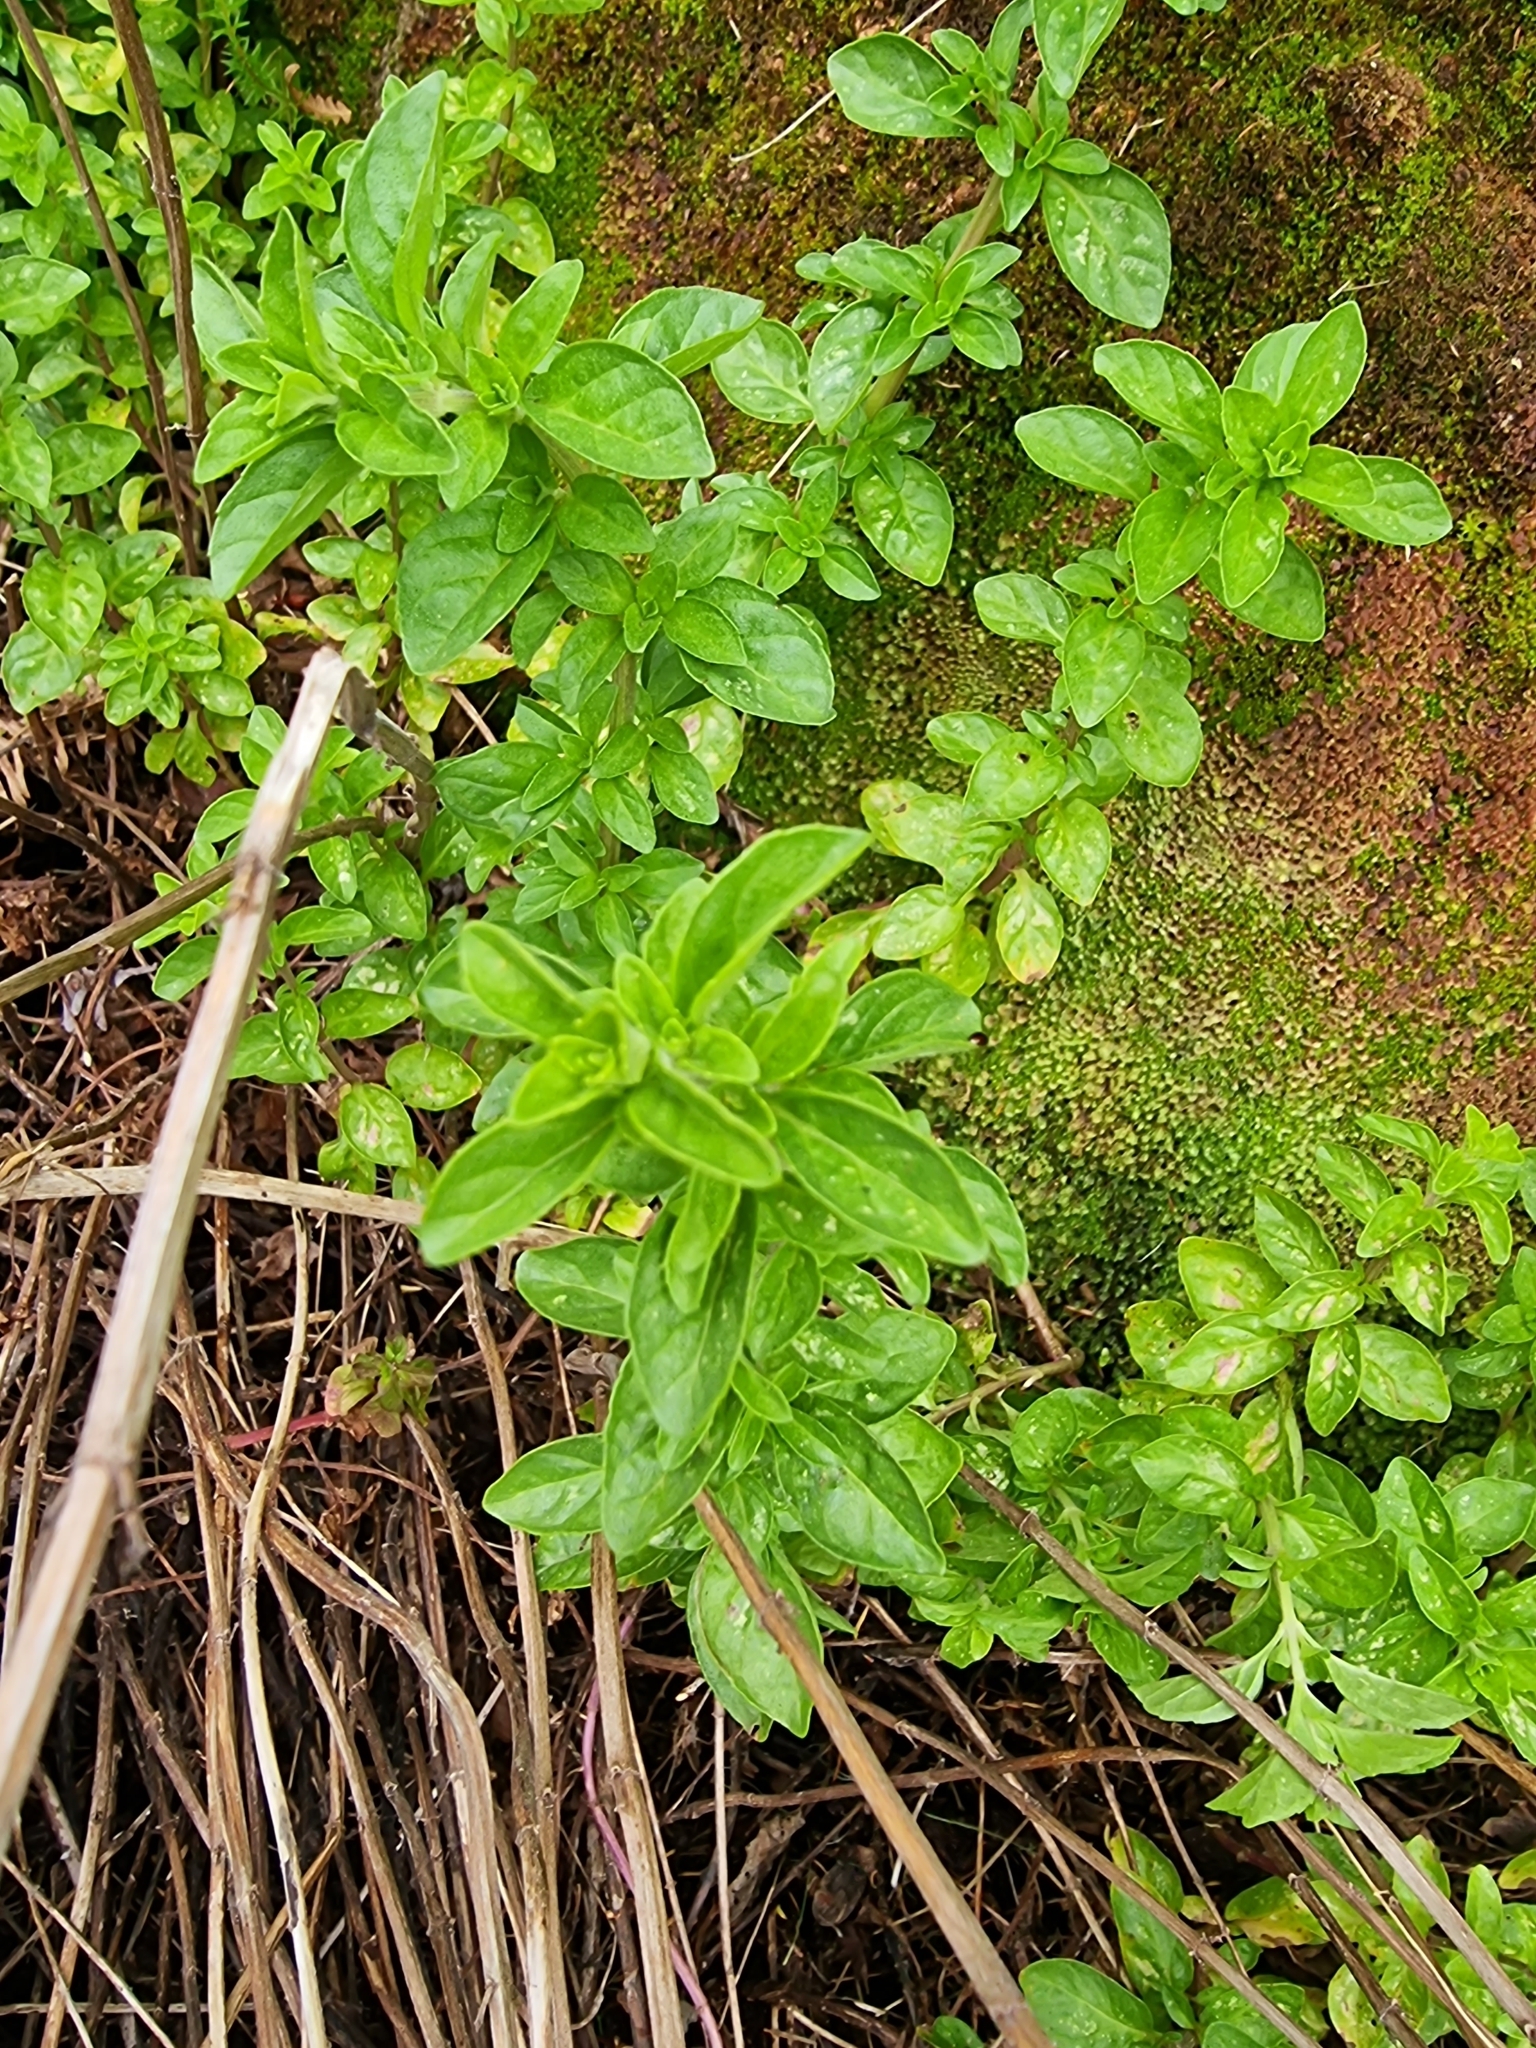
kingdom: Plantae
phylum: Tracheophyta
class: Magnoliopsida
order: Lamiales
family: Lamiaceae
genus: Origanum
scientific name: Origanum vulgare
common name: Wild marjoram
